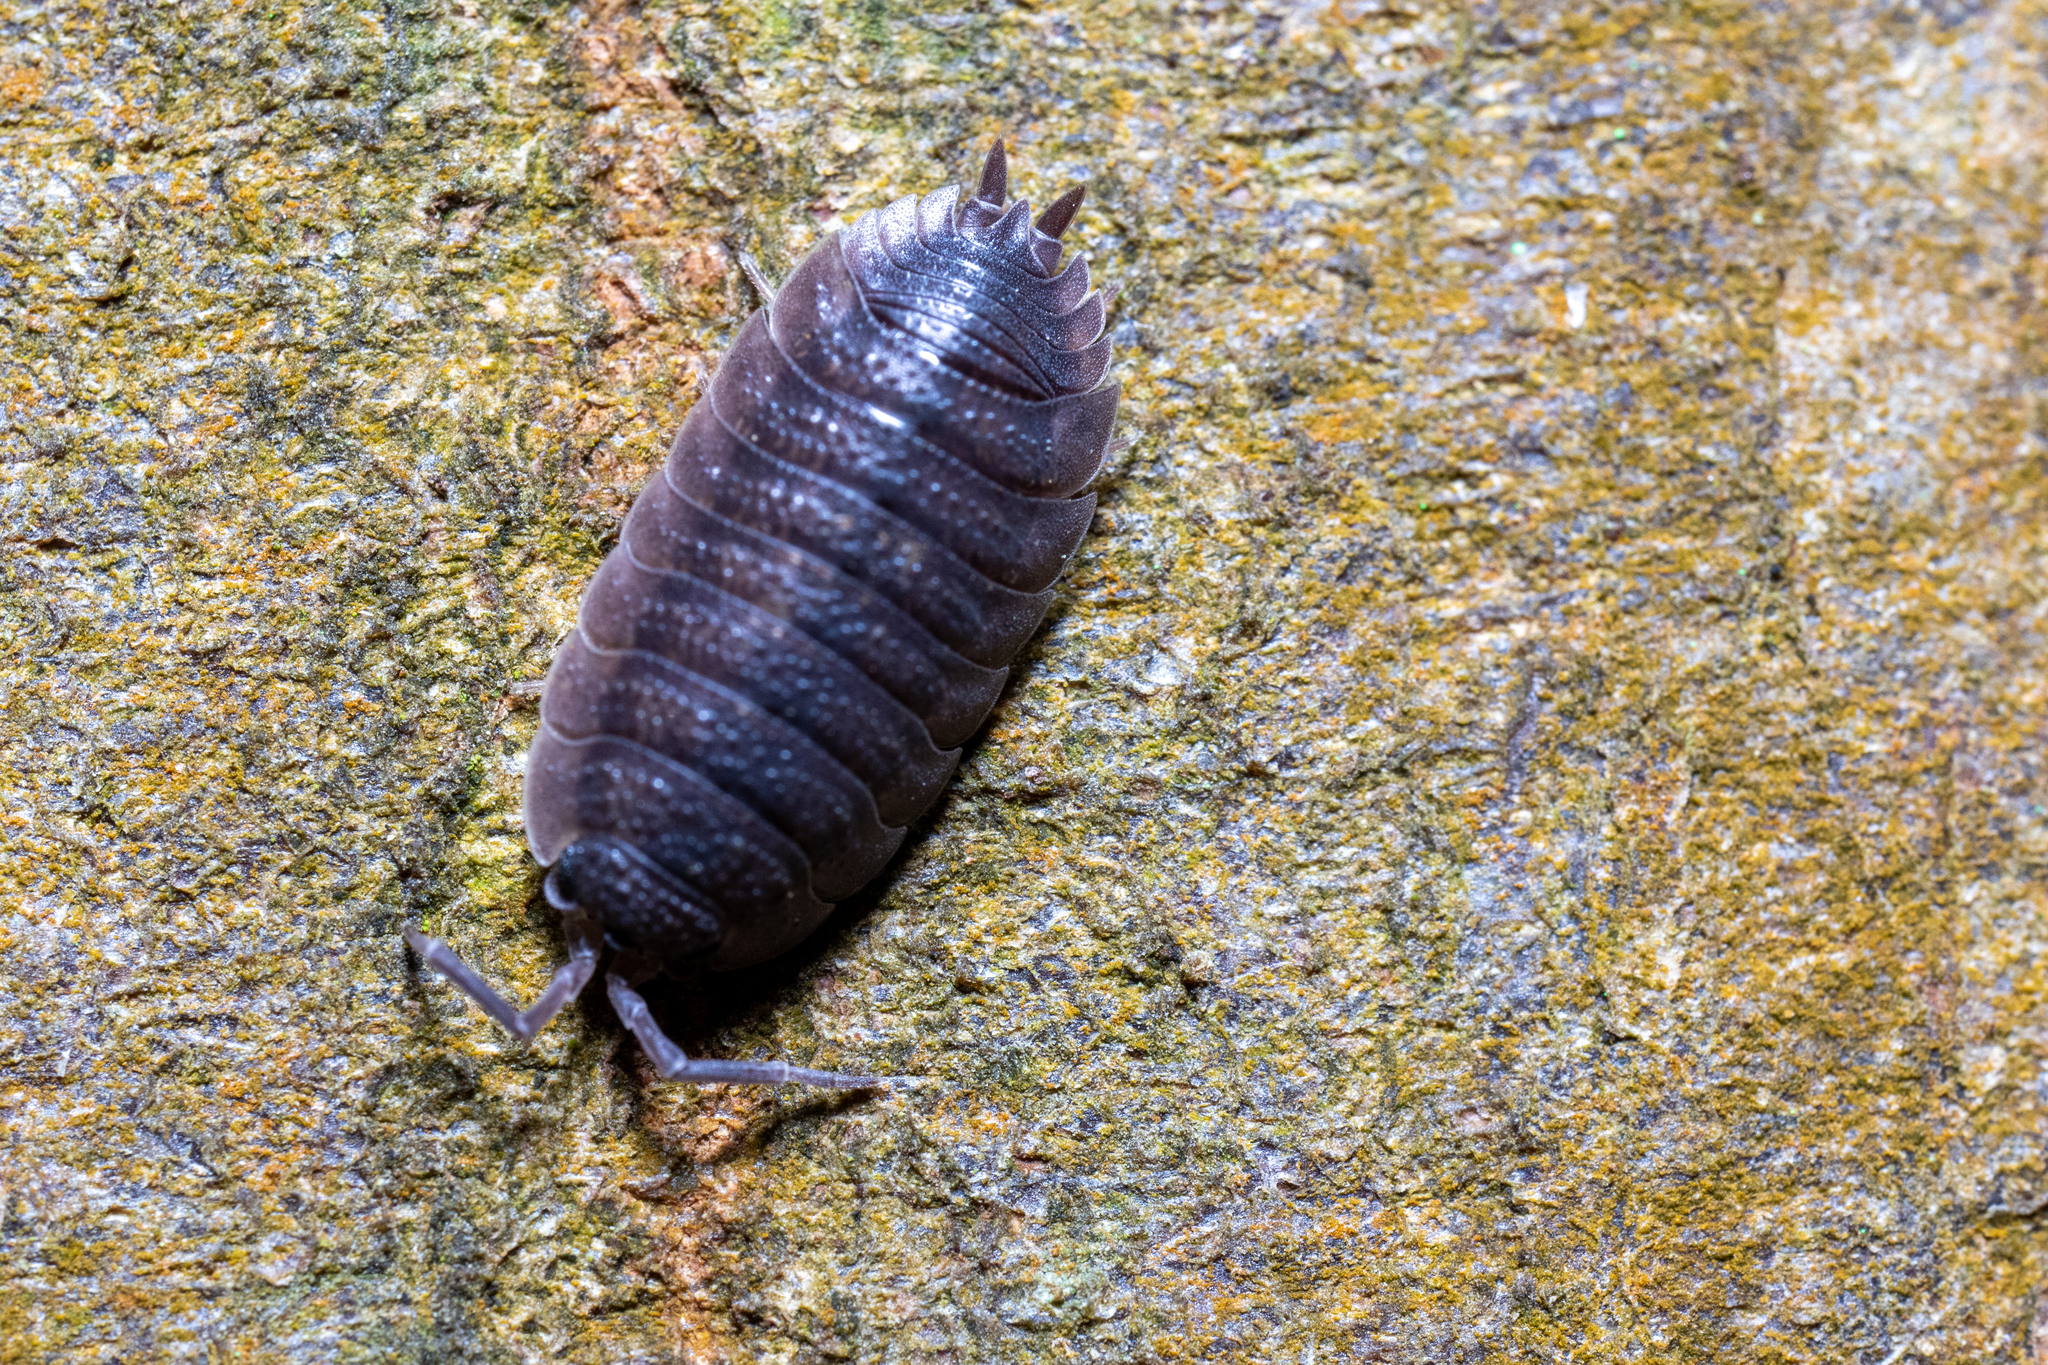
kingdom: Animalia
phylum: Arthropoda
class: Malacostraca
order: Isopoda
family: Porcellionidae
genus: Porcellio
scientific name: Porcellio scaber
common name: Common rough woodlouse
